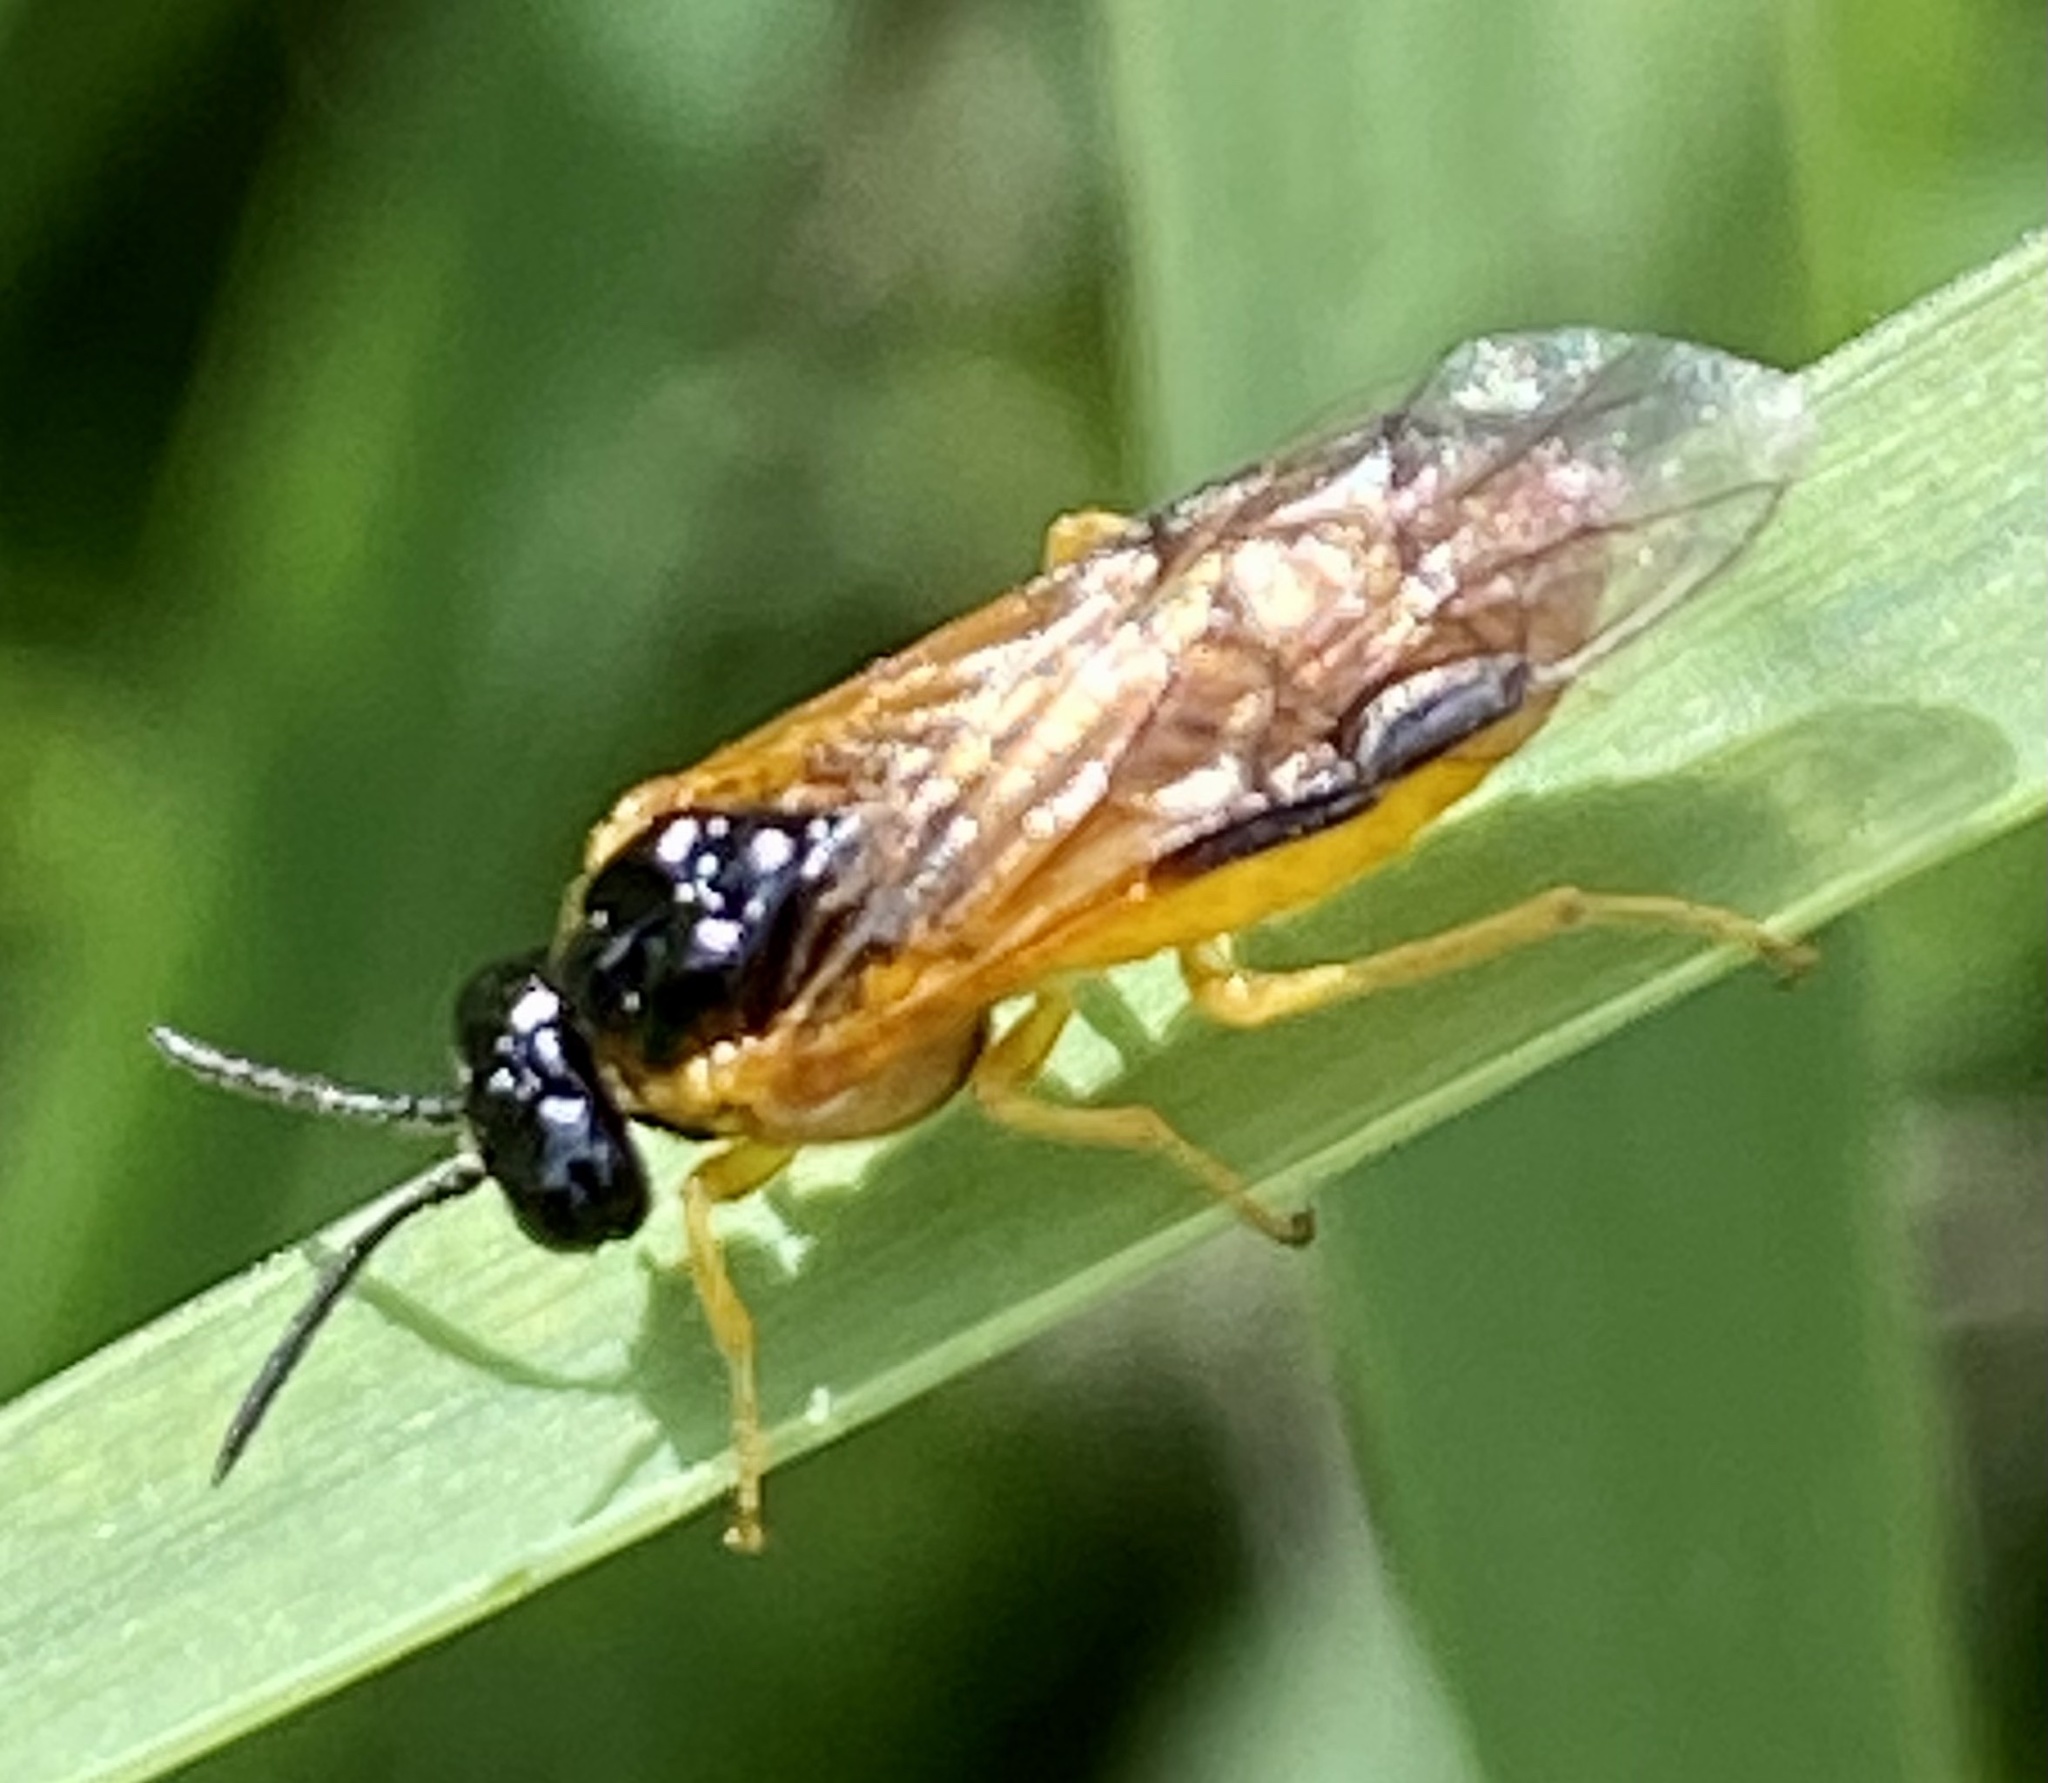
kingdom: Animalia
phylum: Arthropoda
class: Insecta
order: Hymenoptera
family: Tenthredinidae
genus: Selandria
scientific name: Selandria serva
